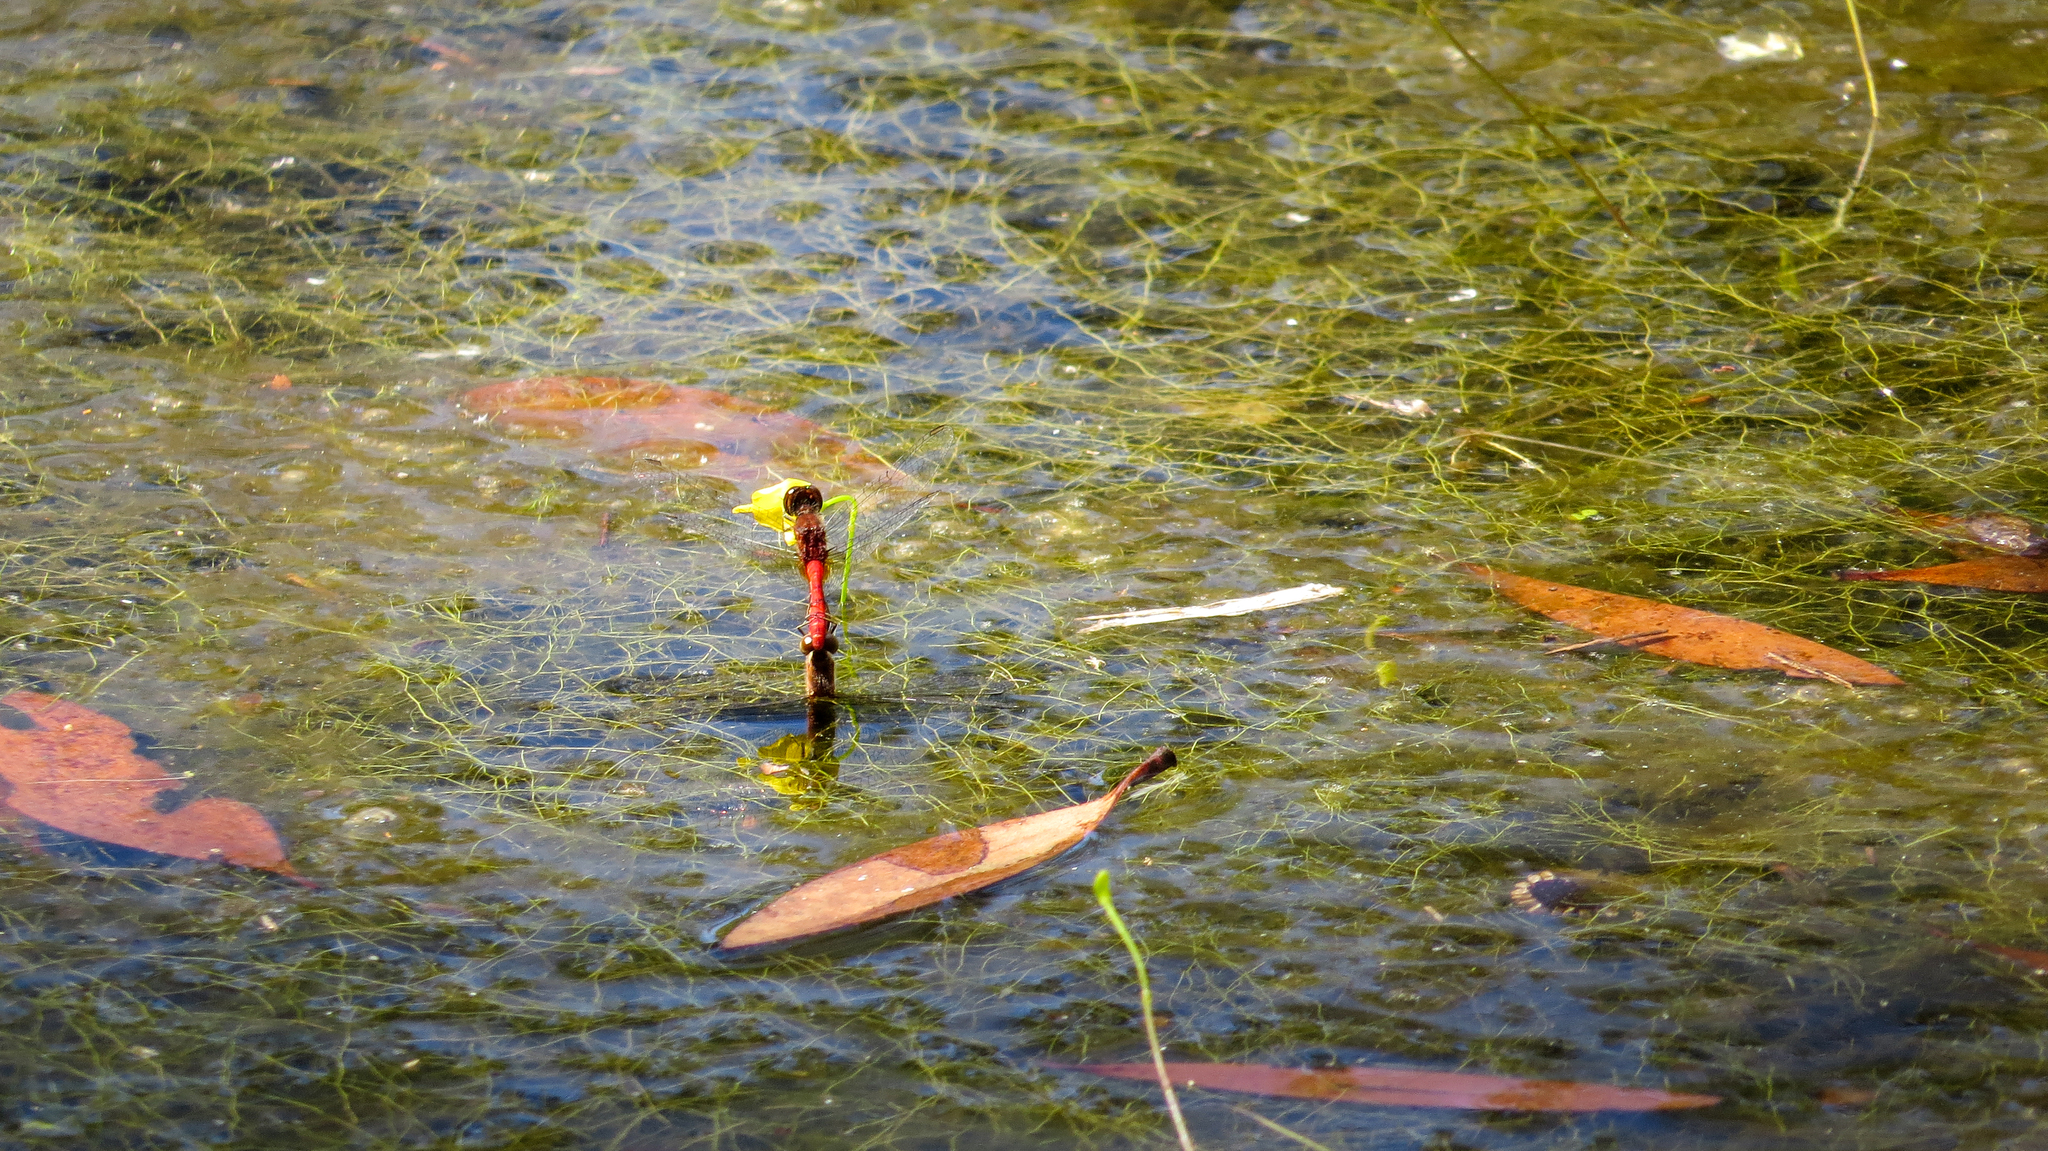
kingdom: Animalia
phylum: Arthropoda
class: Insecta
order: Odonata
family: Libellulidae
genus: Nannodiplax
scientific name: Nannodiplax rubra
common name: Pygmy percher
